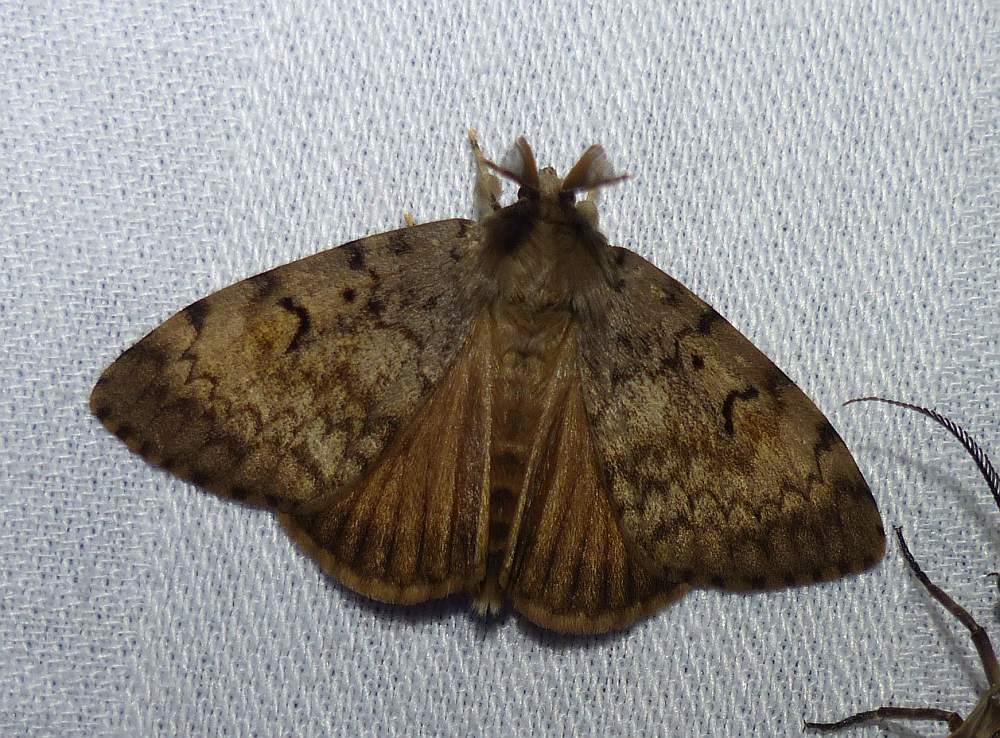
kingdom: Animalia
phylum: Arthropoda
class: Insecta
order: Lepidoptera
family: Erebidae
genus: Lymantria
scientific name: Lymantria dispar
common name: Gypsy moth
